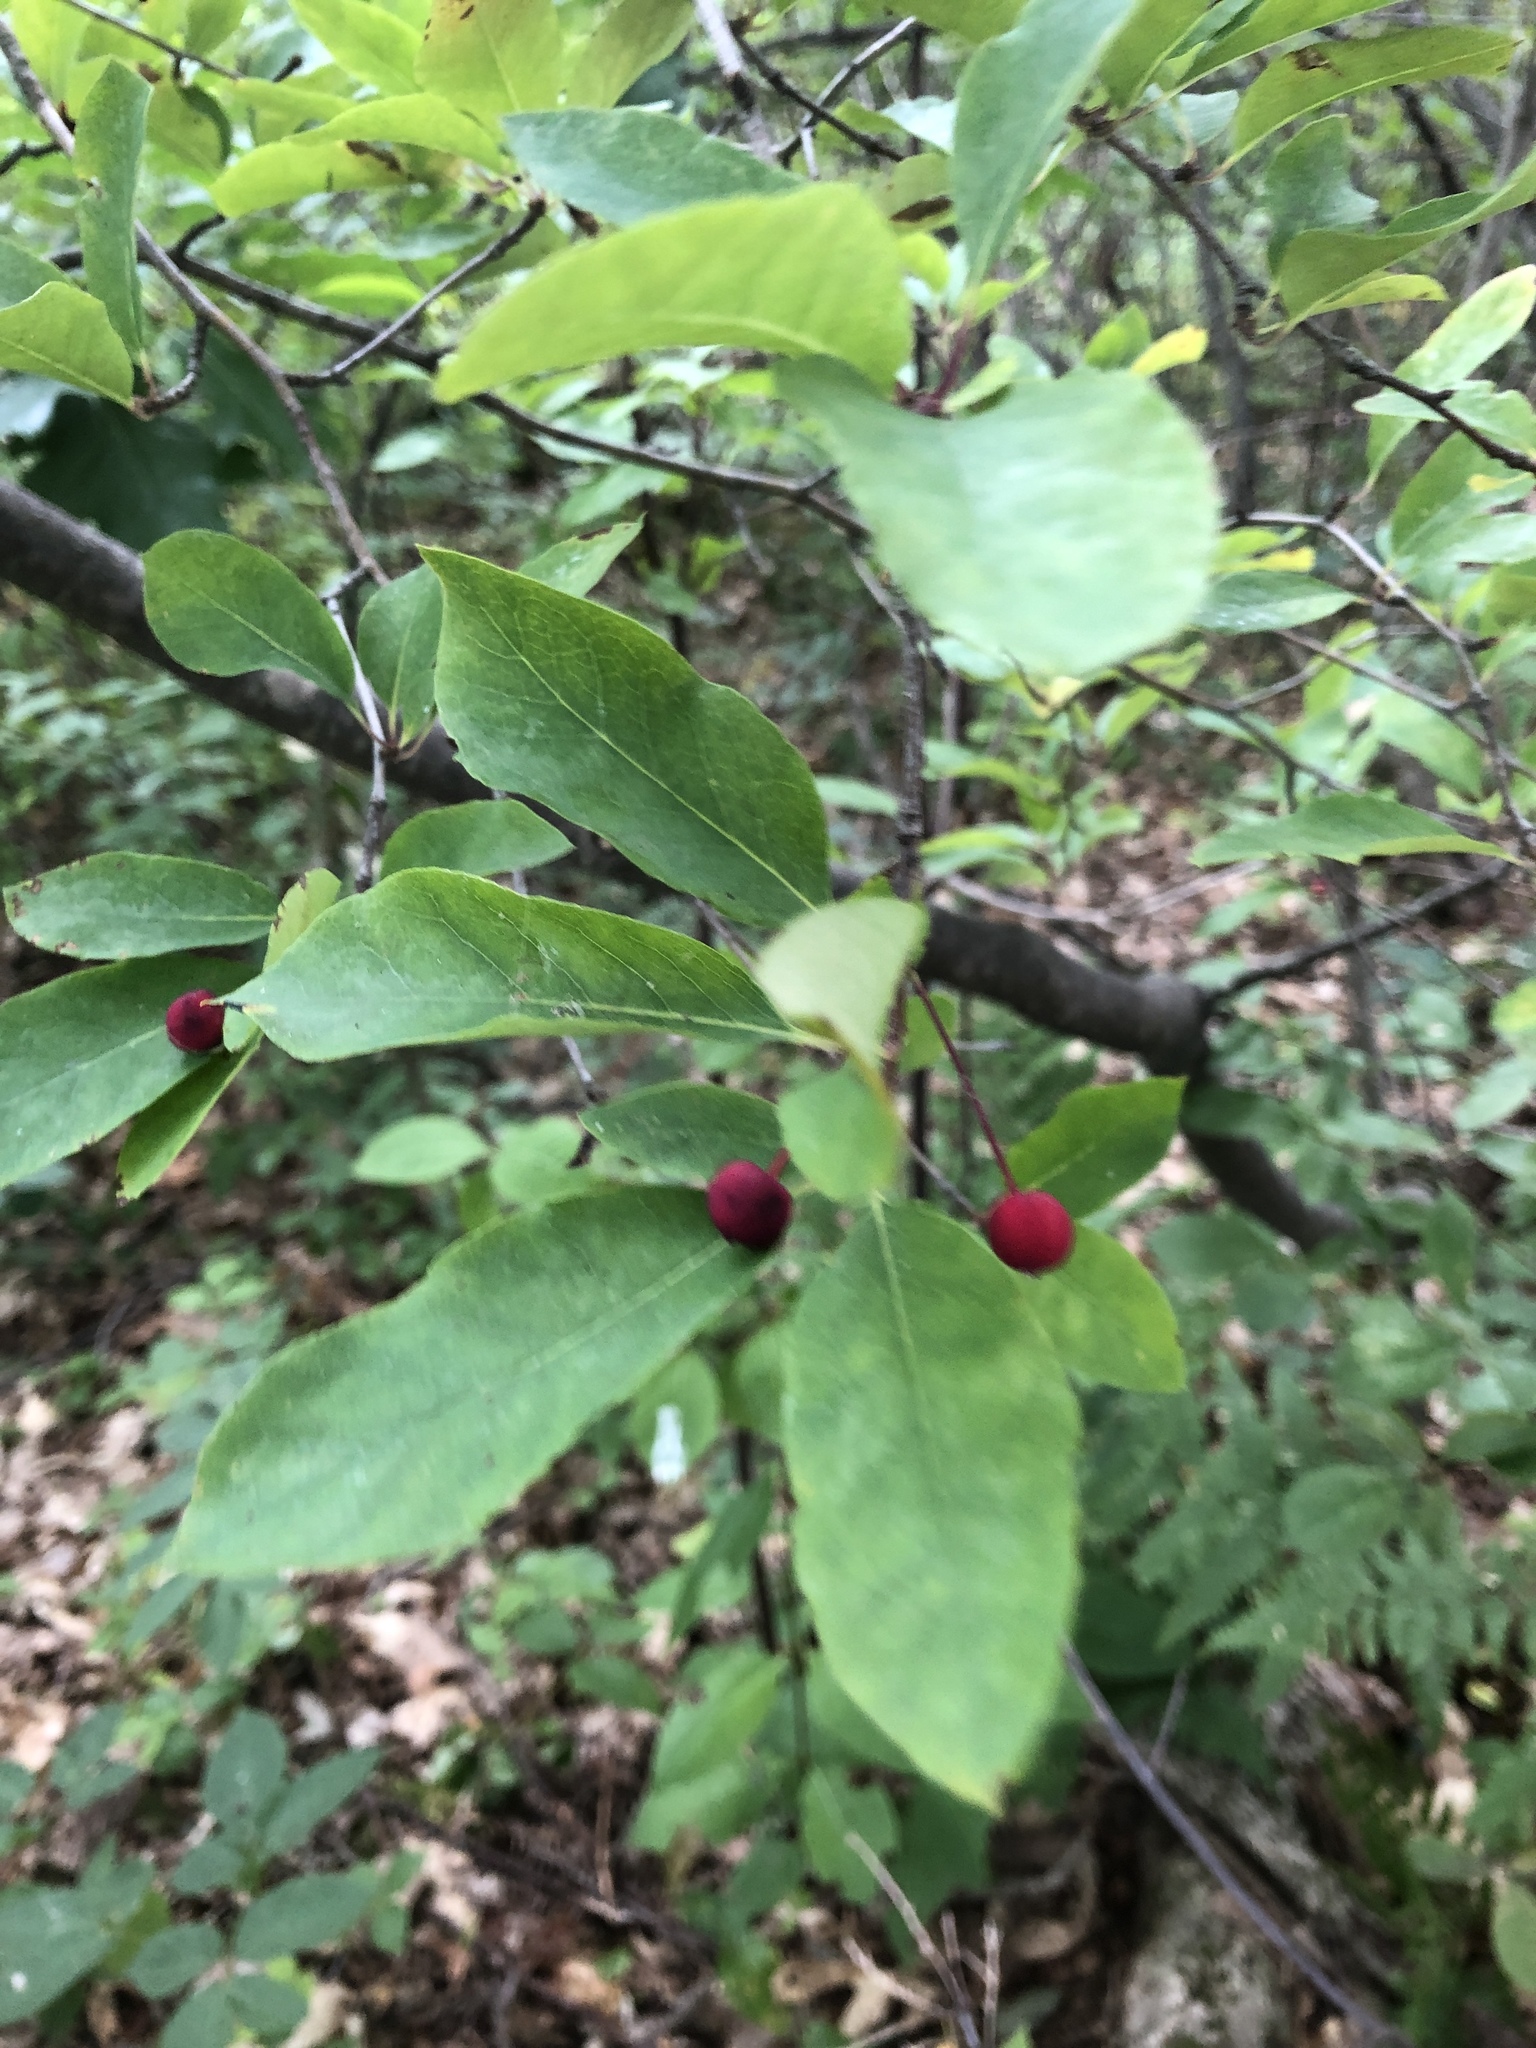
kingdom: Plantae
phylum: Tracheophyta
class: Magnoliopsida
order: Aquifoliales
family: Aquifoliaceae
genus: Ilex
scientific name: Ilex mucronata
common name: Catberry
